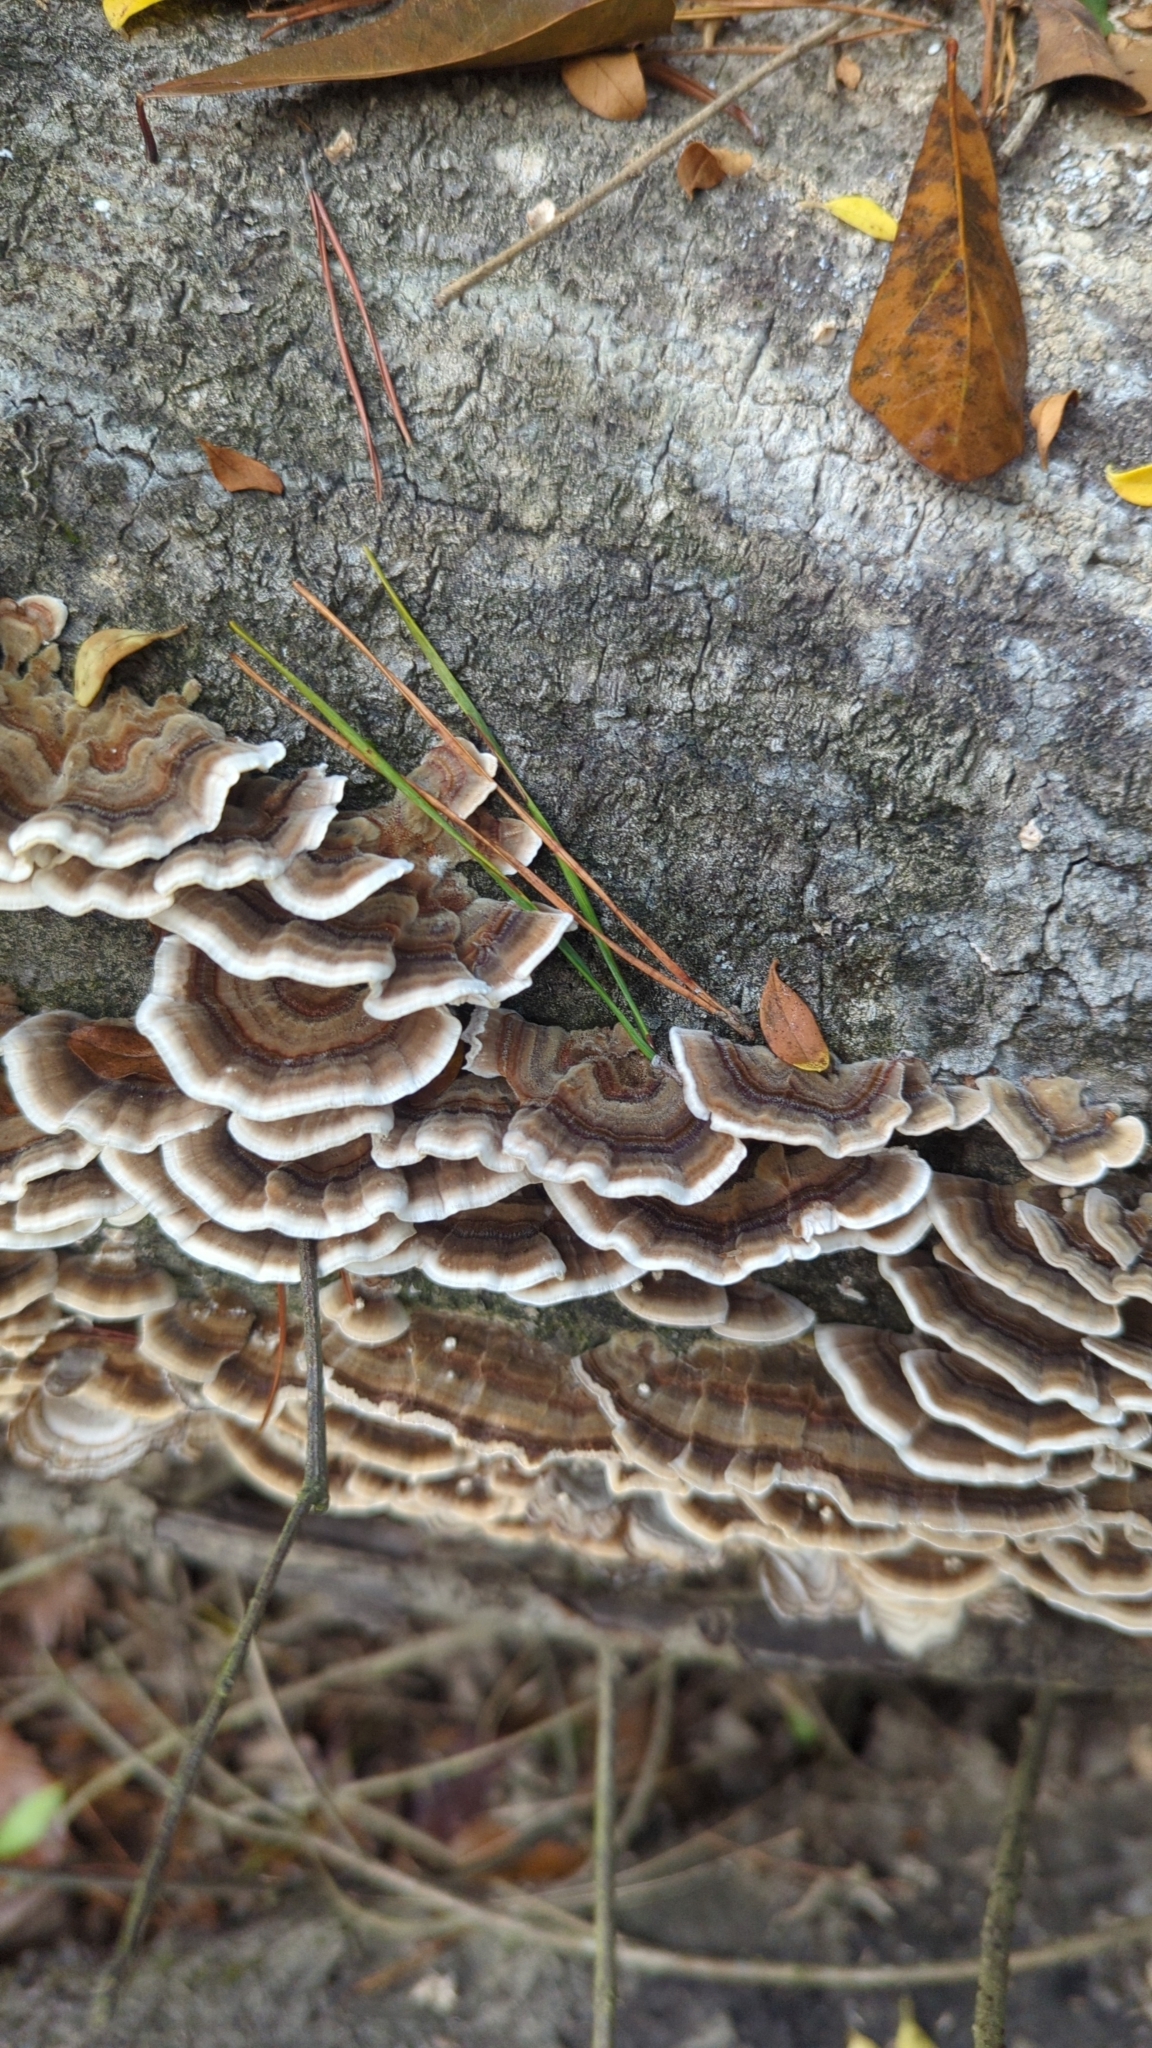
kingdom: Fungi
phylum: Basidiomycota
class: Agaricomycetes
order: Polyporales
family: Polyporaceae
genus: Trametes
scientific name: Trametes versicolor
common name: Turkeytail
